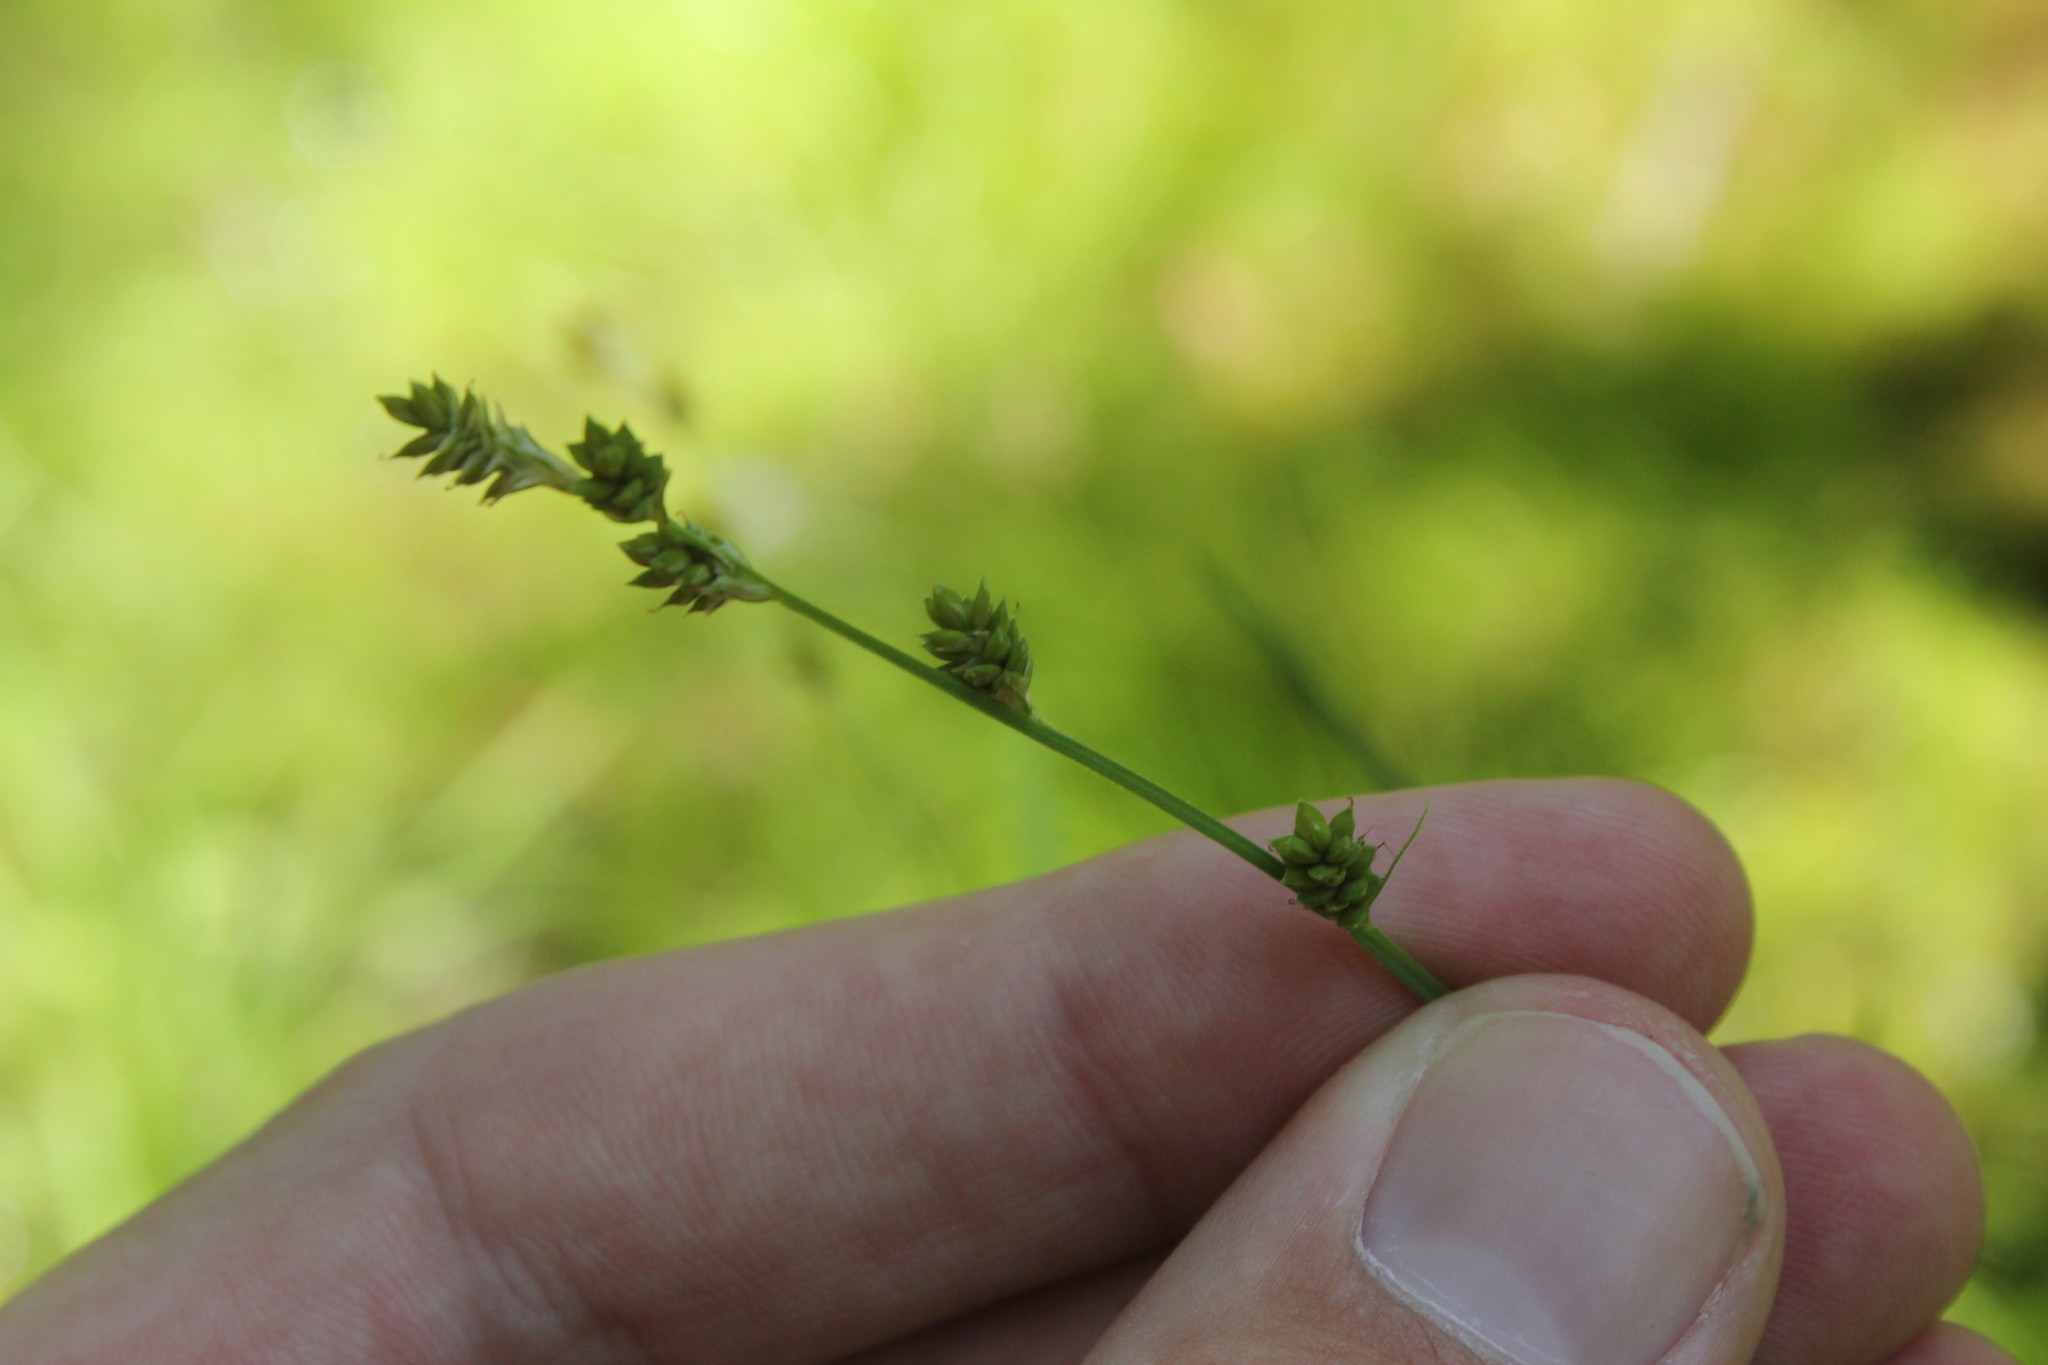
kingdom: Plantae
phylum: Tracheophyta
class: Liliopsida
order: Poales
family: Cyperaceae
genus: Carex
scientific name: Carex canescens
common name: White sedge
